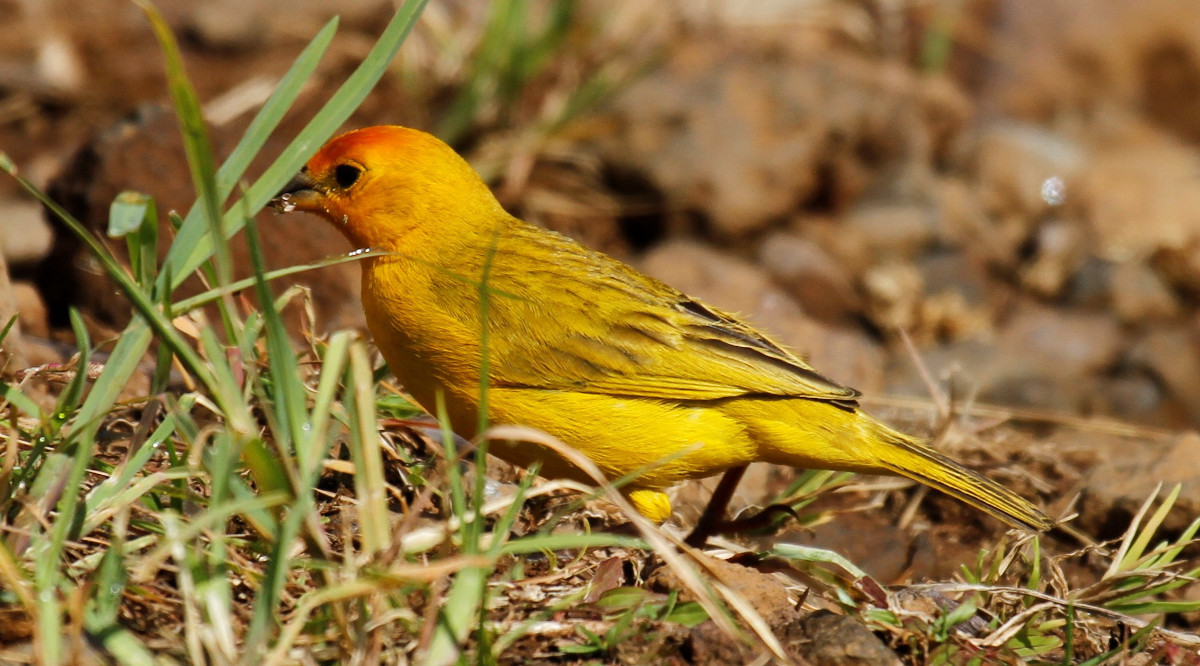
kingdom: Animalia
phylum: Chordata
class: Aves
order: Passeriformes
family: Thraupidae
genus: Sicalis
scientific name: Sicalis flaveola
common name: Saffron finch
